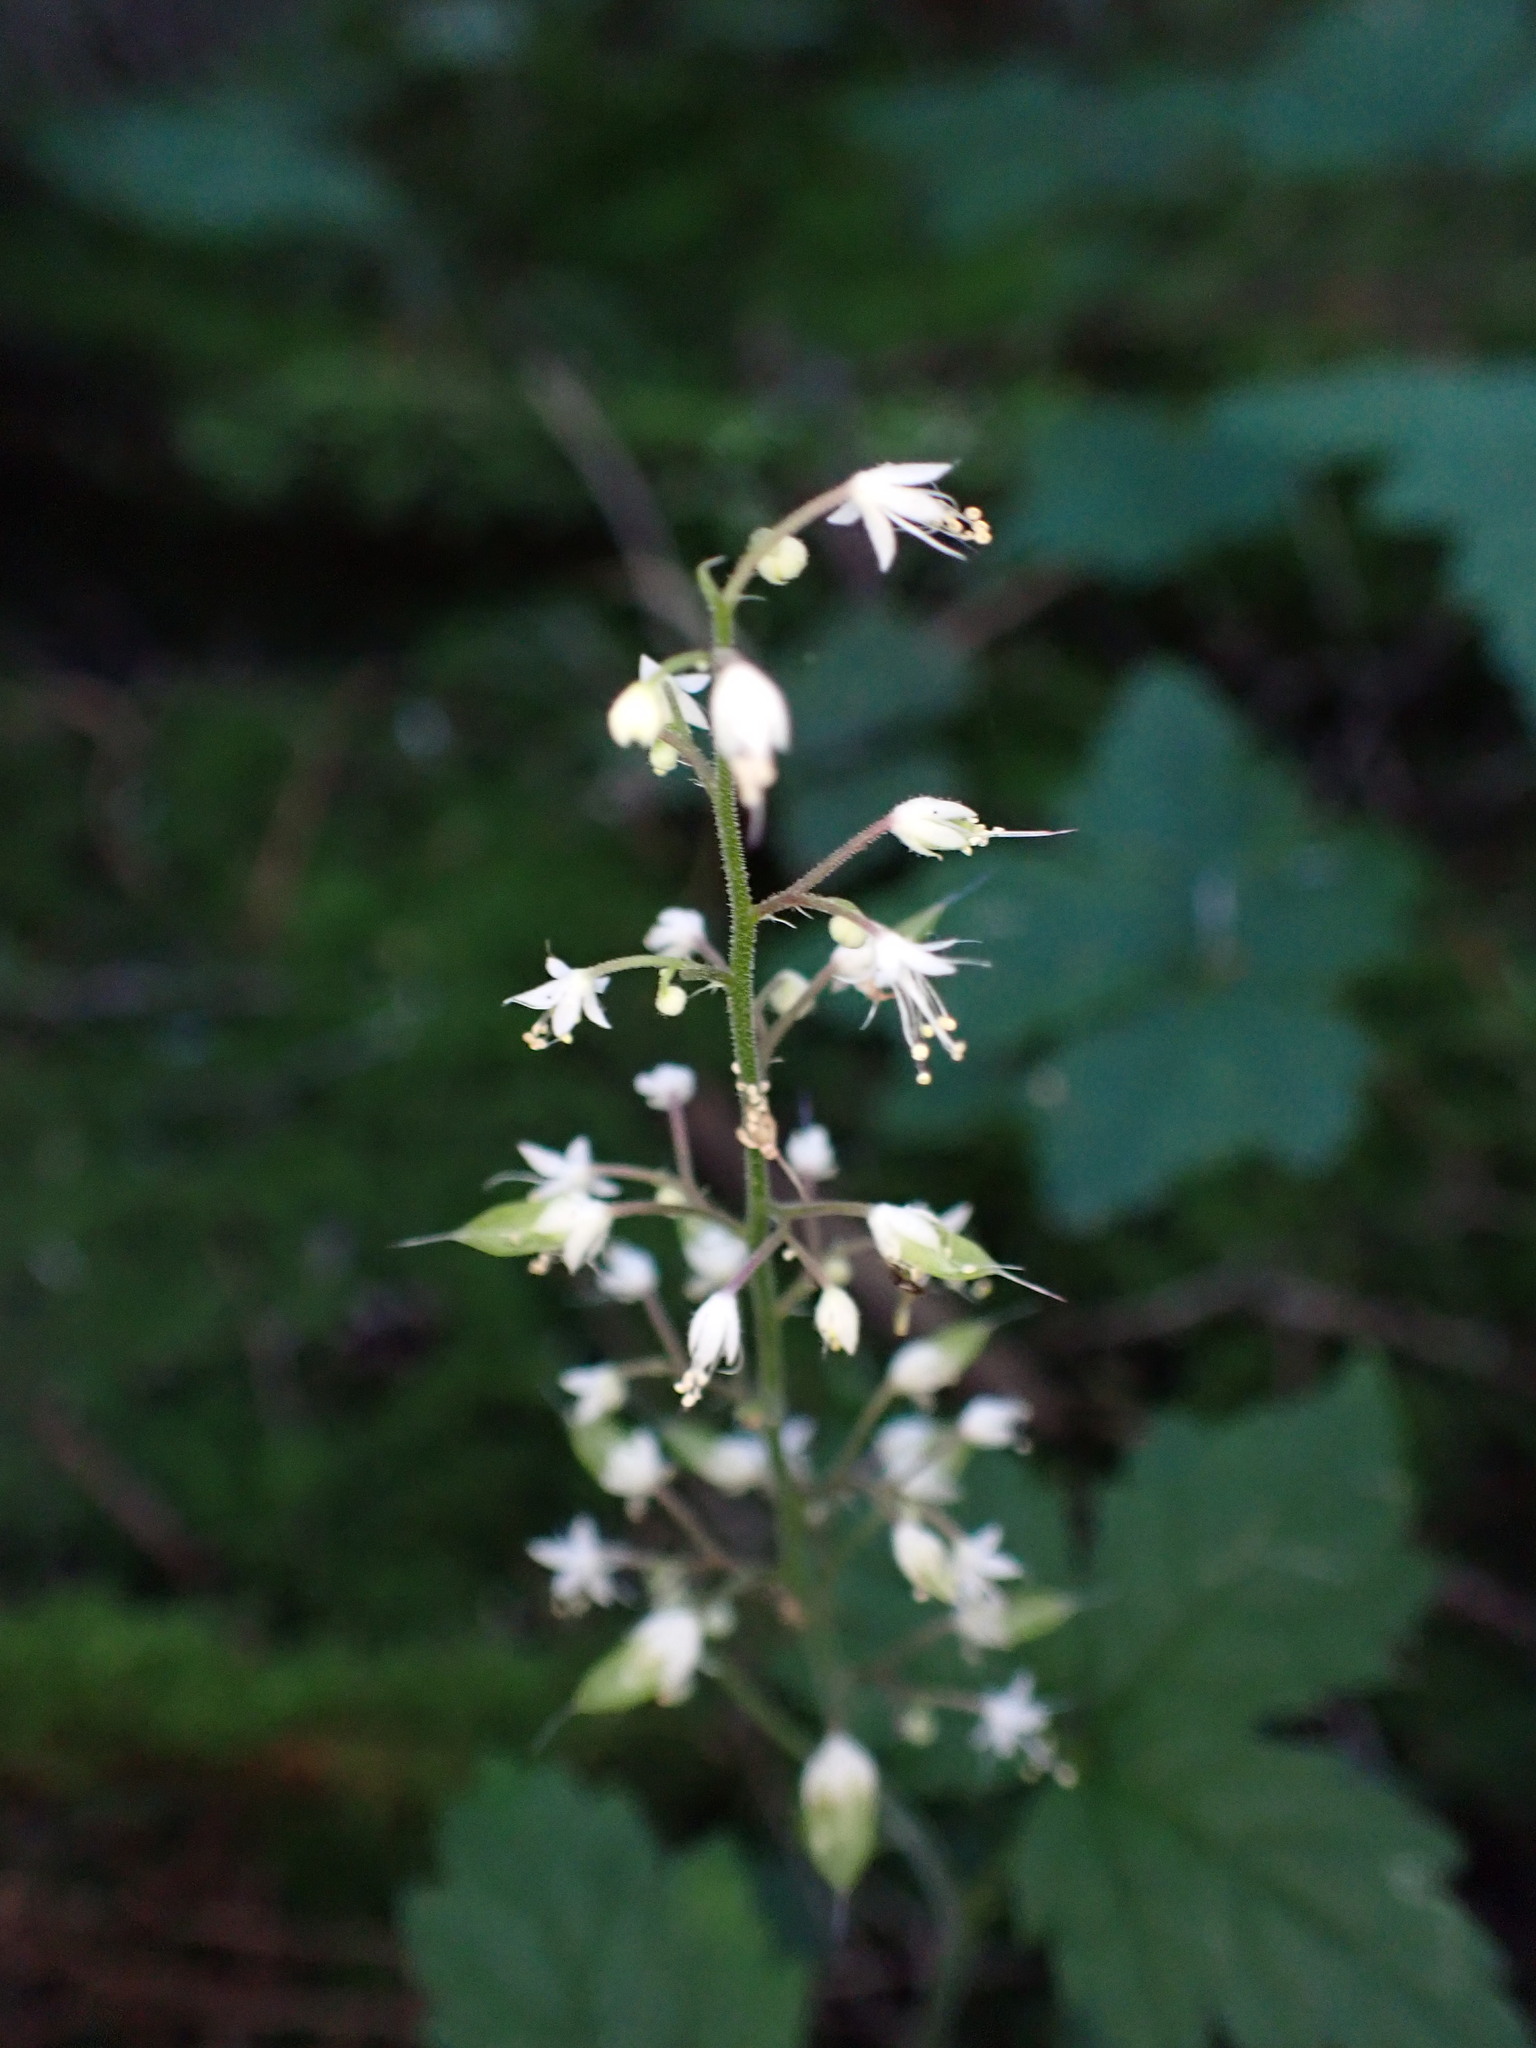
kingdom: Plantae
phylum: Tracheophyta
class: Magnoliopsida
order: Saxifragales
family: Saxifragaceae
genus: Tiarella
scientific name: Tiarella trifoliata
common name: Sugar-scoop
